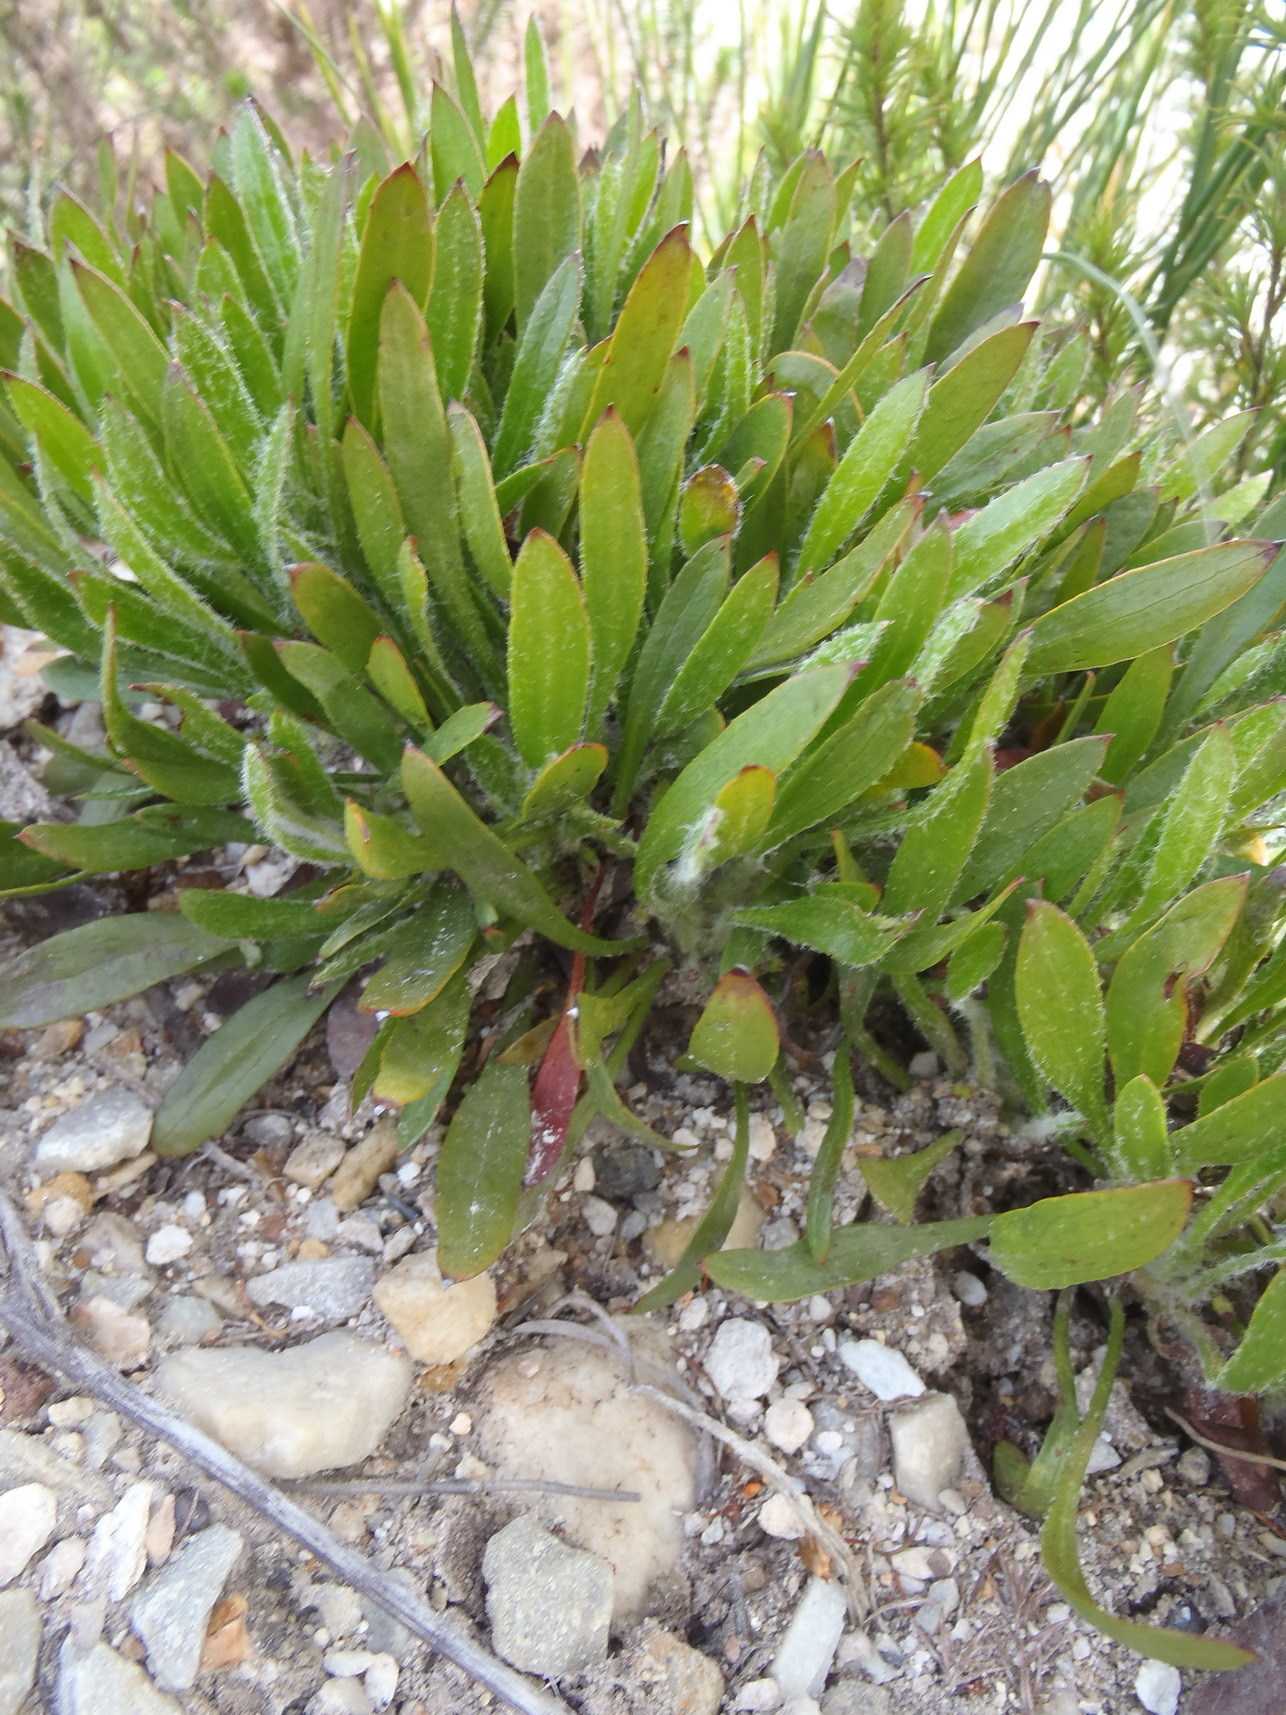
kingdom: Plantae
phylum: Tracheophyta
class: Magnoliopsida
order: Apiales
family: Apiaceae
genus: Centella
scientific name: Centella longifolia
